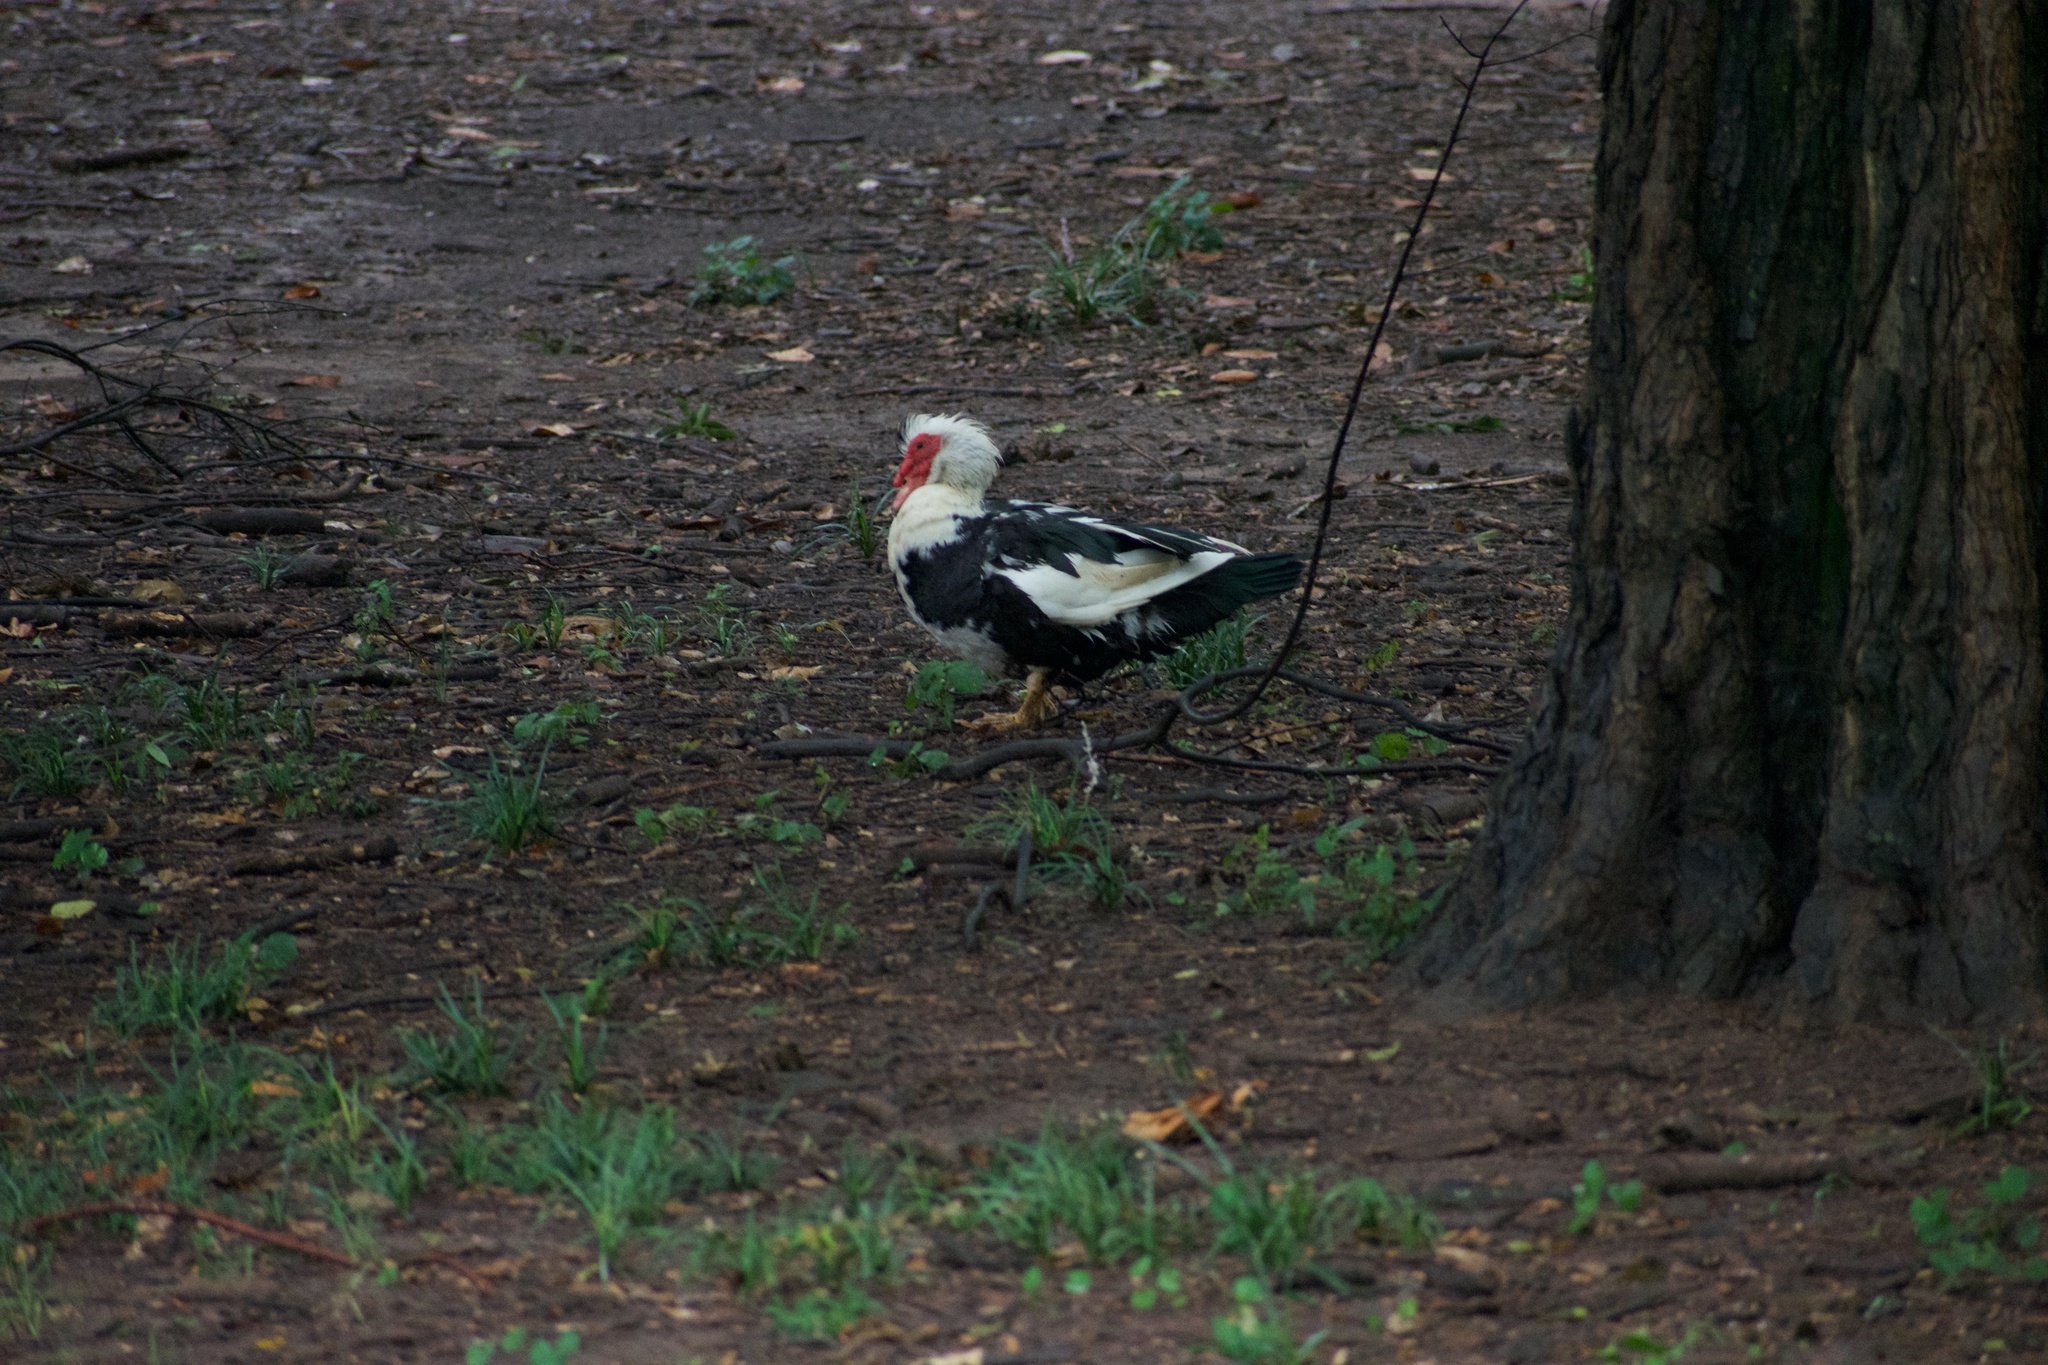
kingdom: Animalia
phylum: Chordata
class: Aves
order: Anseriformes
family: Anatidae
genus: Cairina
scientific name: Cairina moschata
